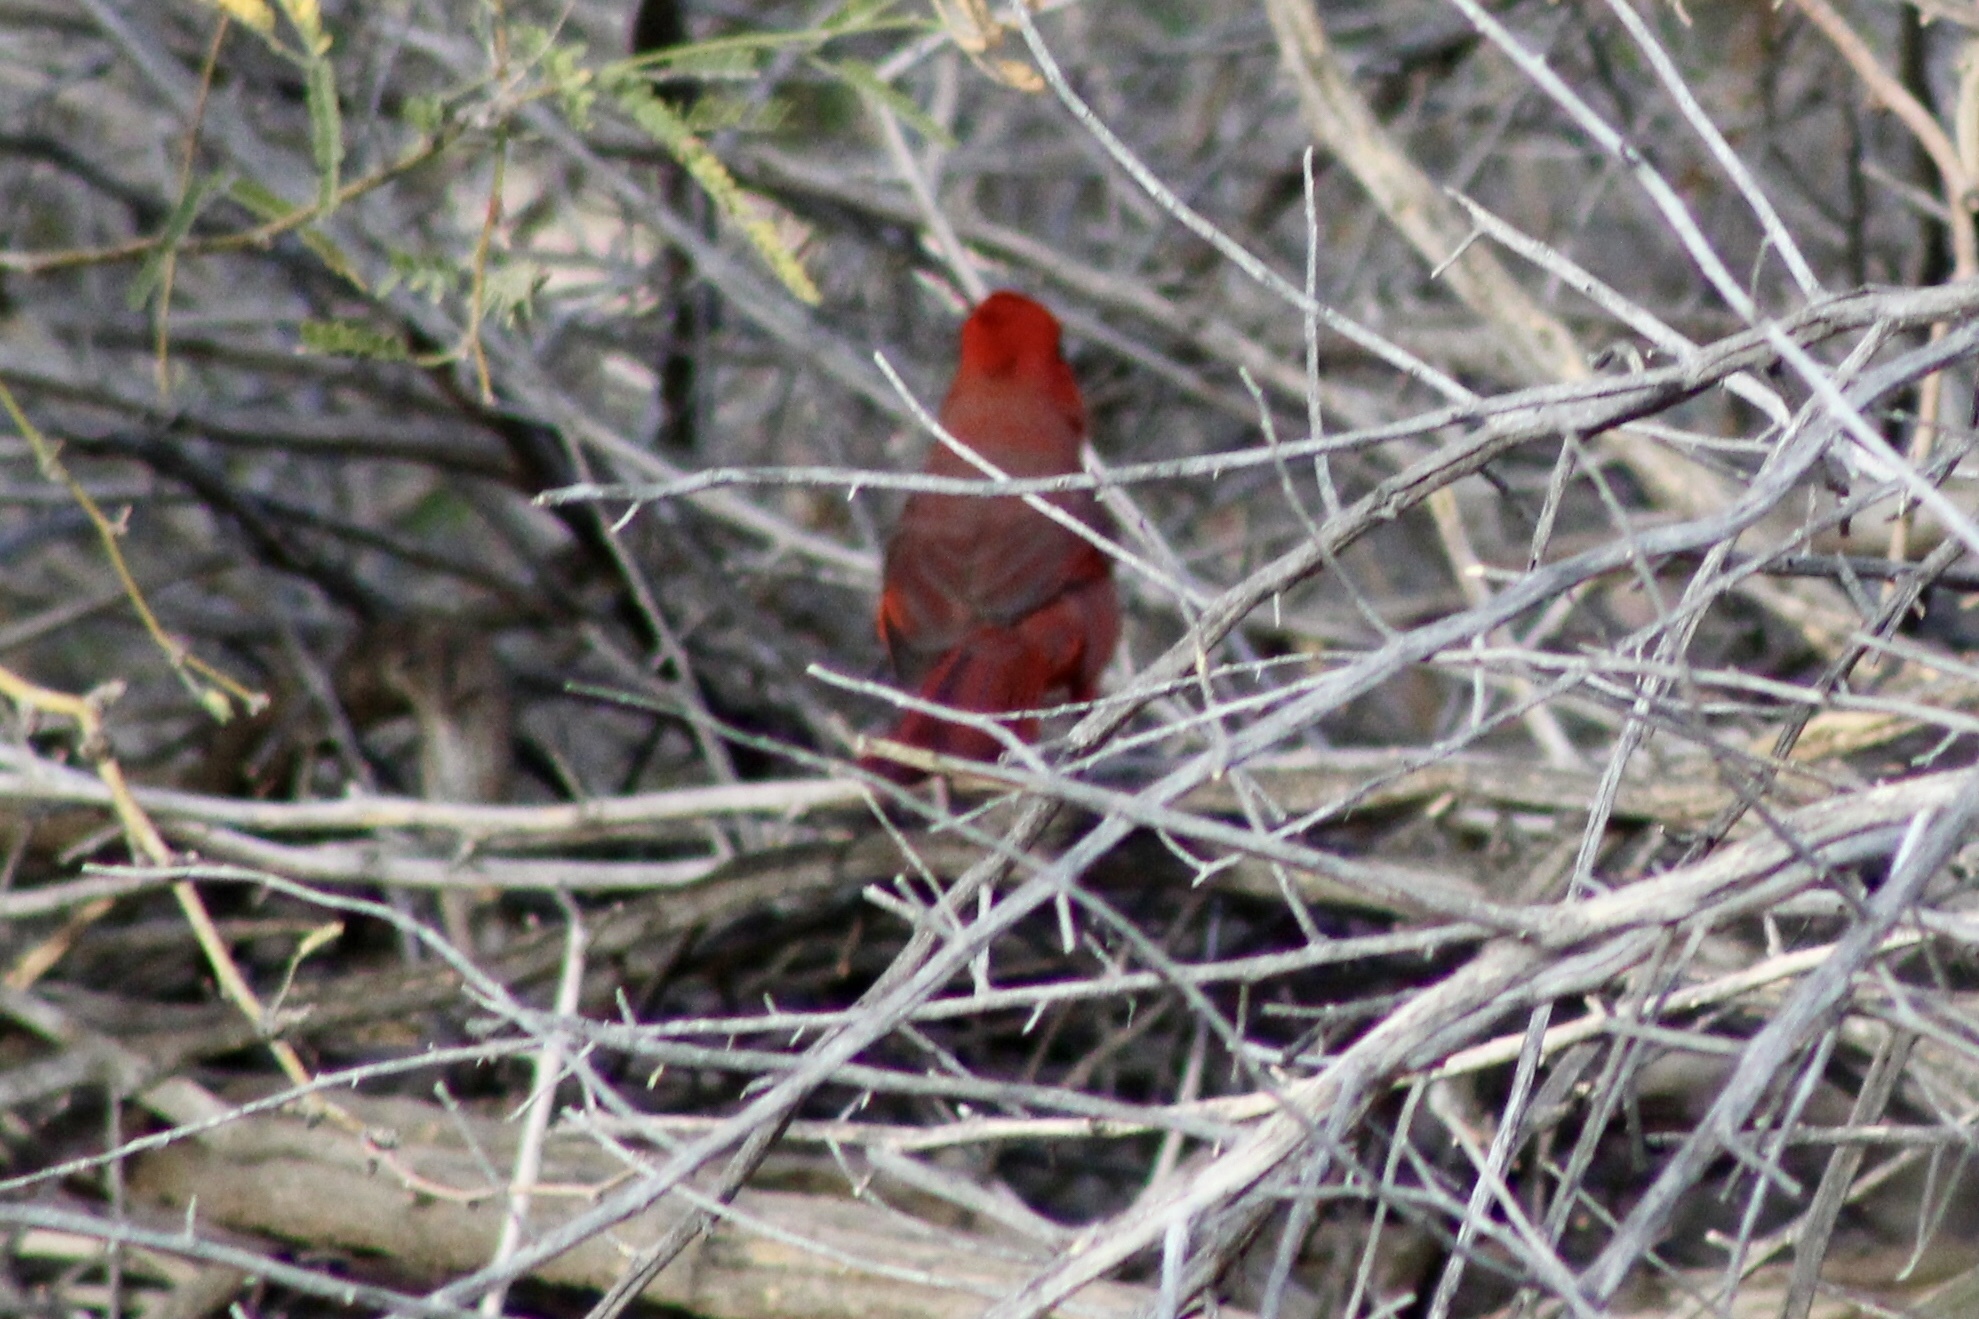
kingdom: Animalia
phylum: Chordata
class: Aves
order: Passeriformes
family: Cardinalidae
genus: Cardinalis
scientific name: Cardinalis cardinalis
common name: Northern cardinal
